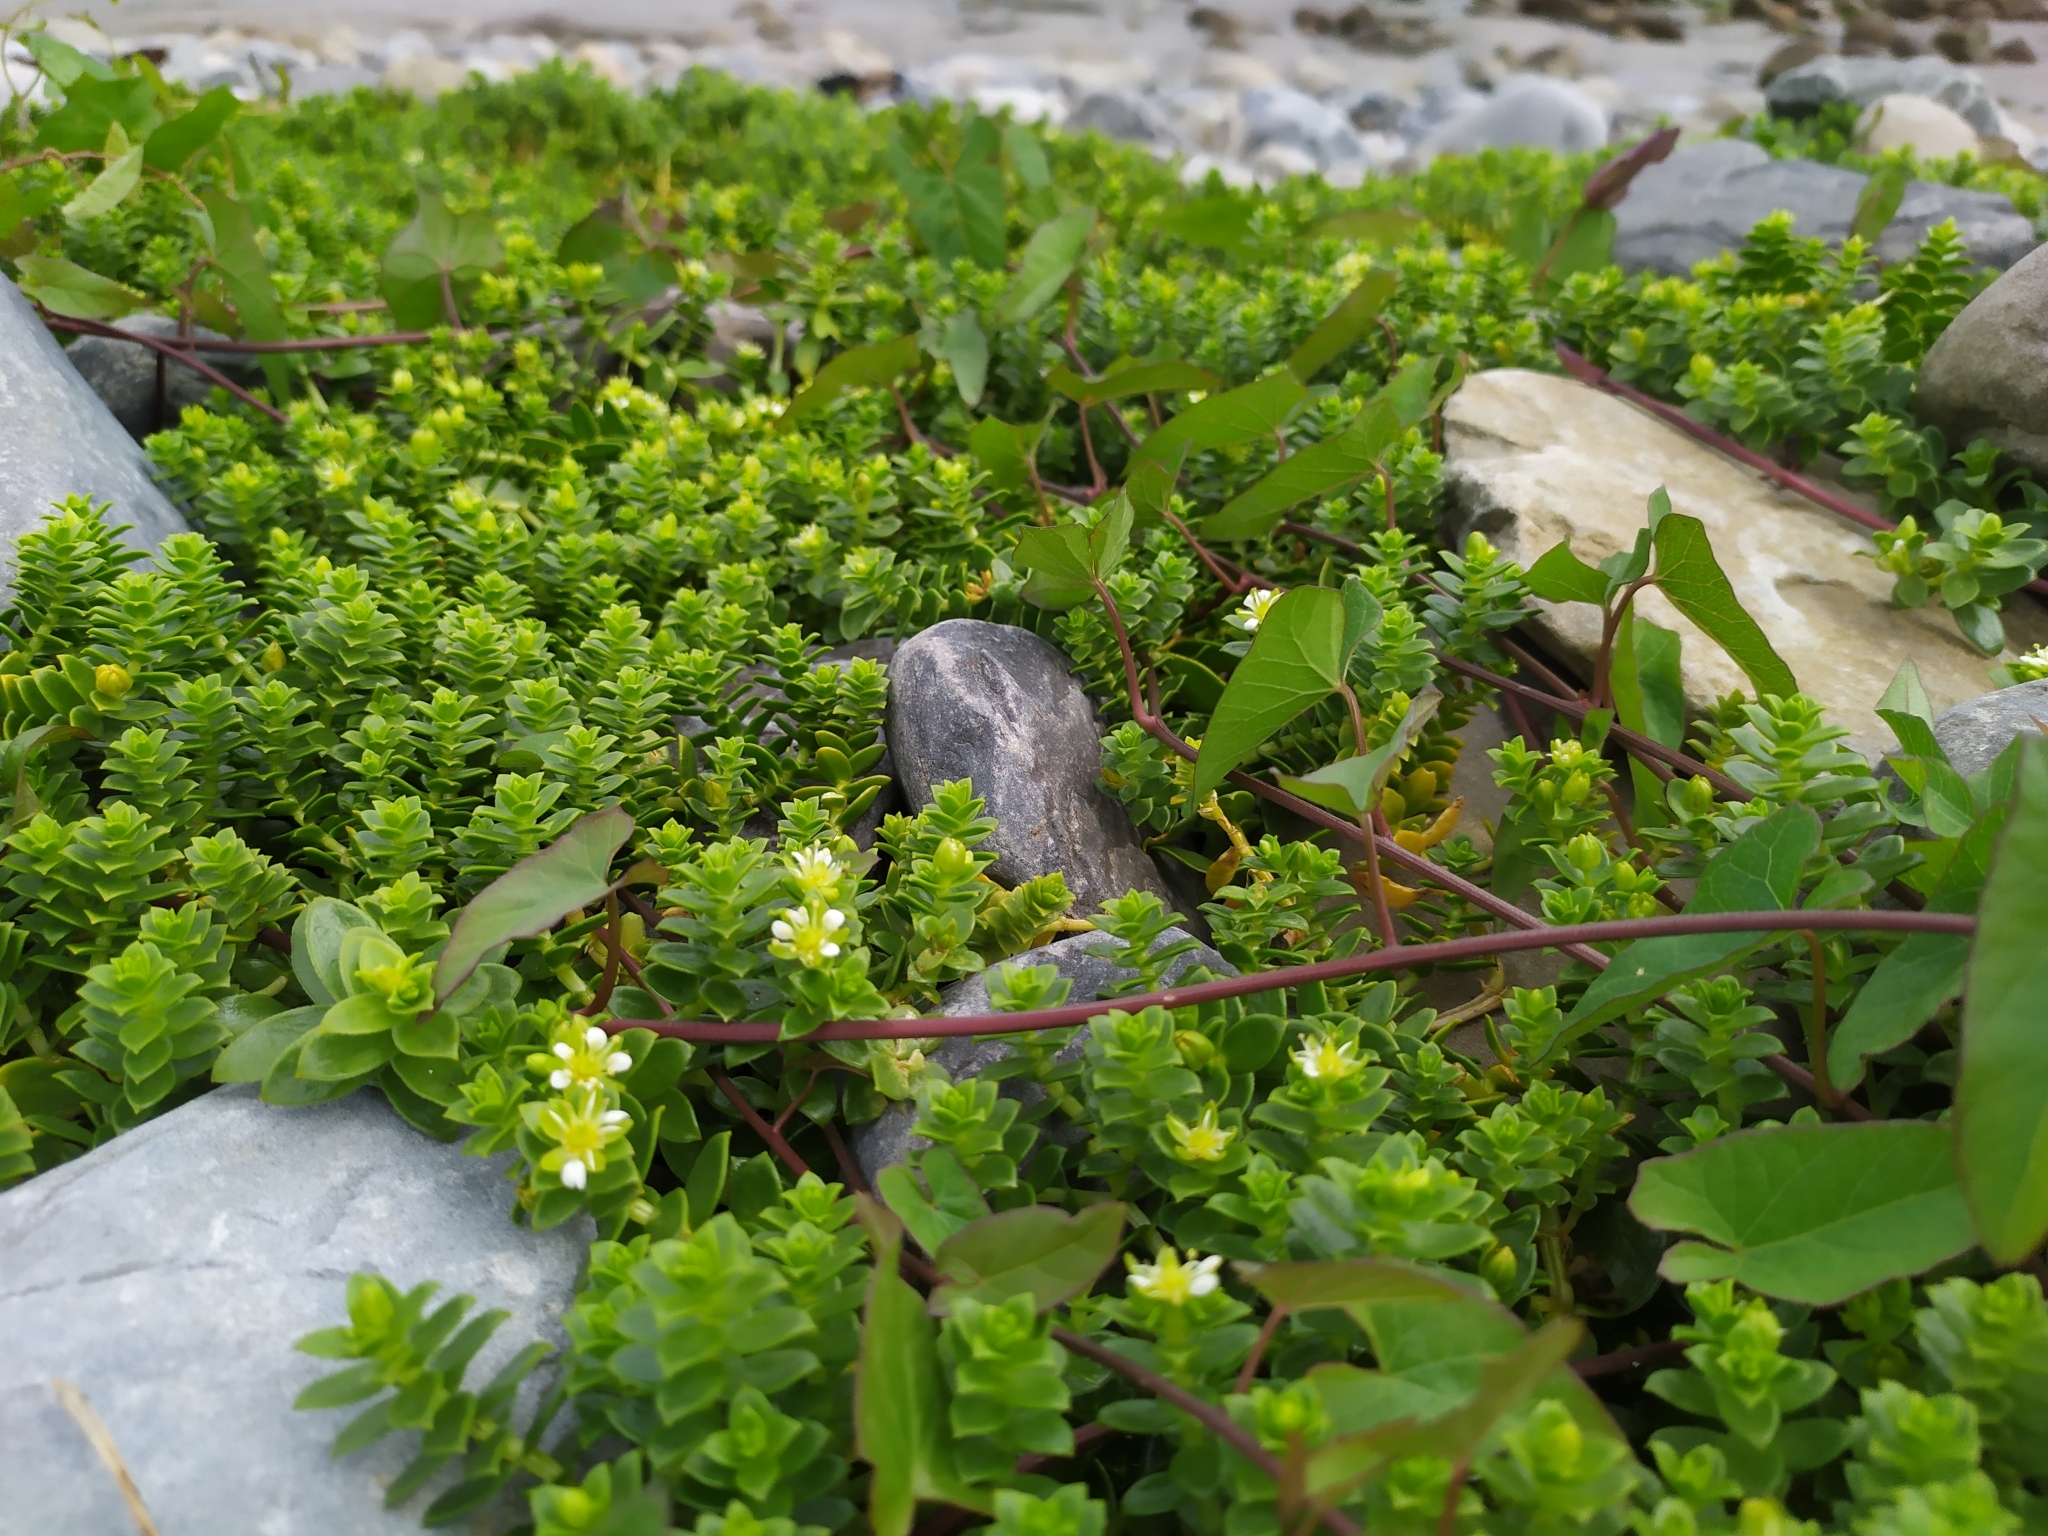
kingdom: Plantae
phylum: Tracheophyta
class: Magnoliopsida
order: Caryophyllales
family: Caryophyllaceae
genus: Honckenya
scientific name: Honckenya peploides
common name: Sea sandwort
